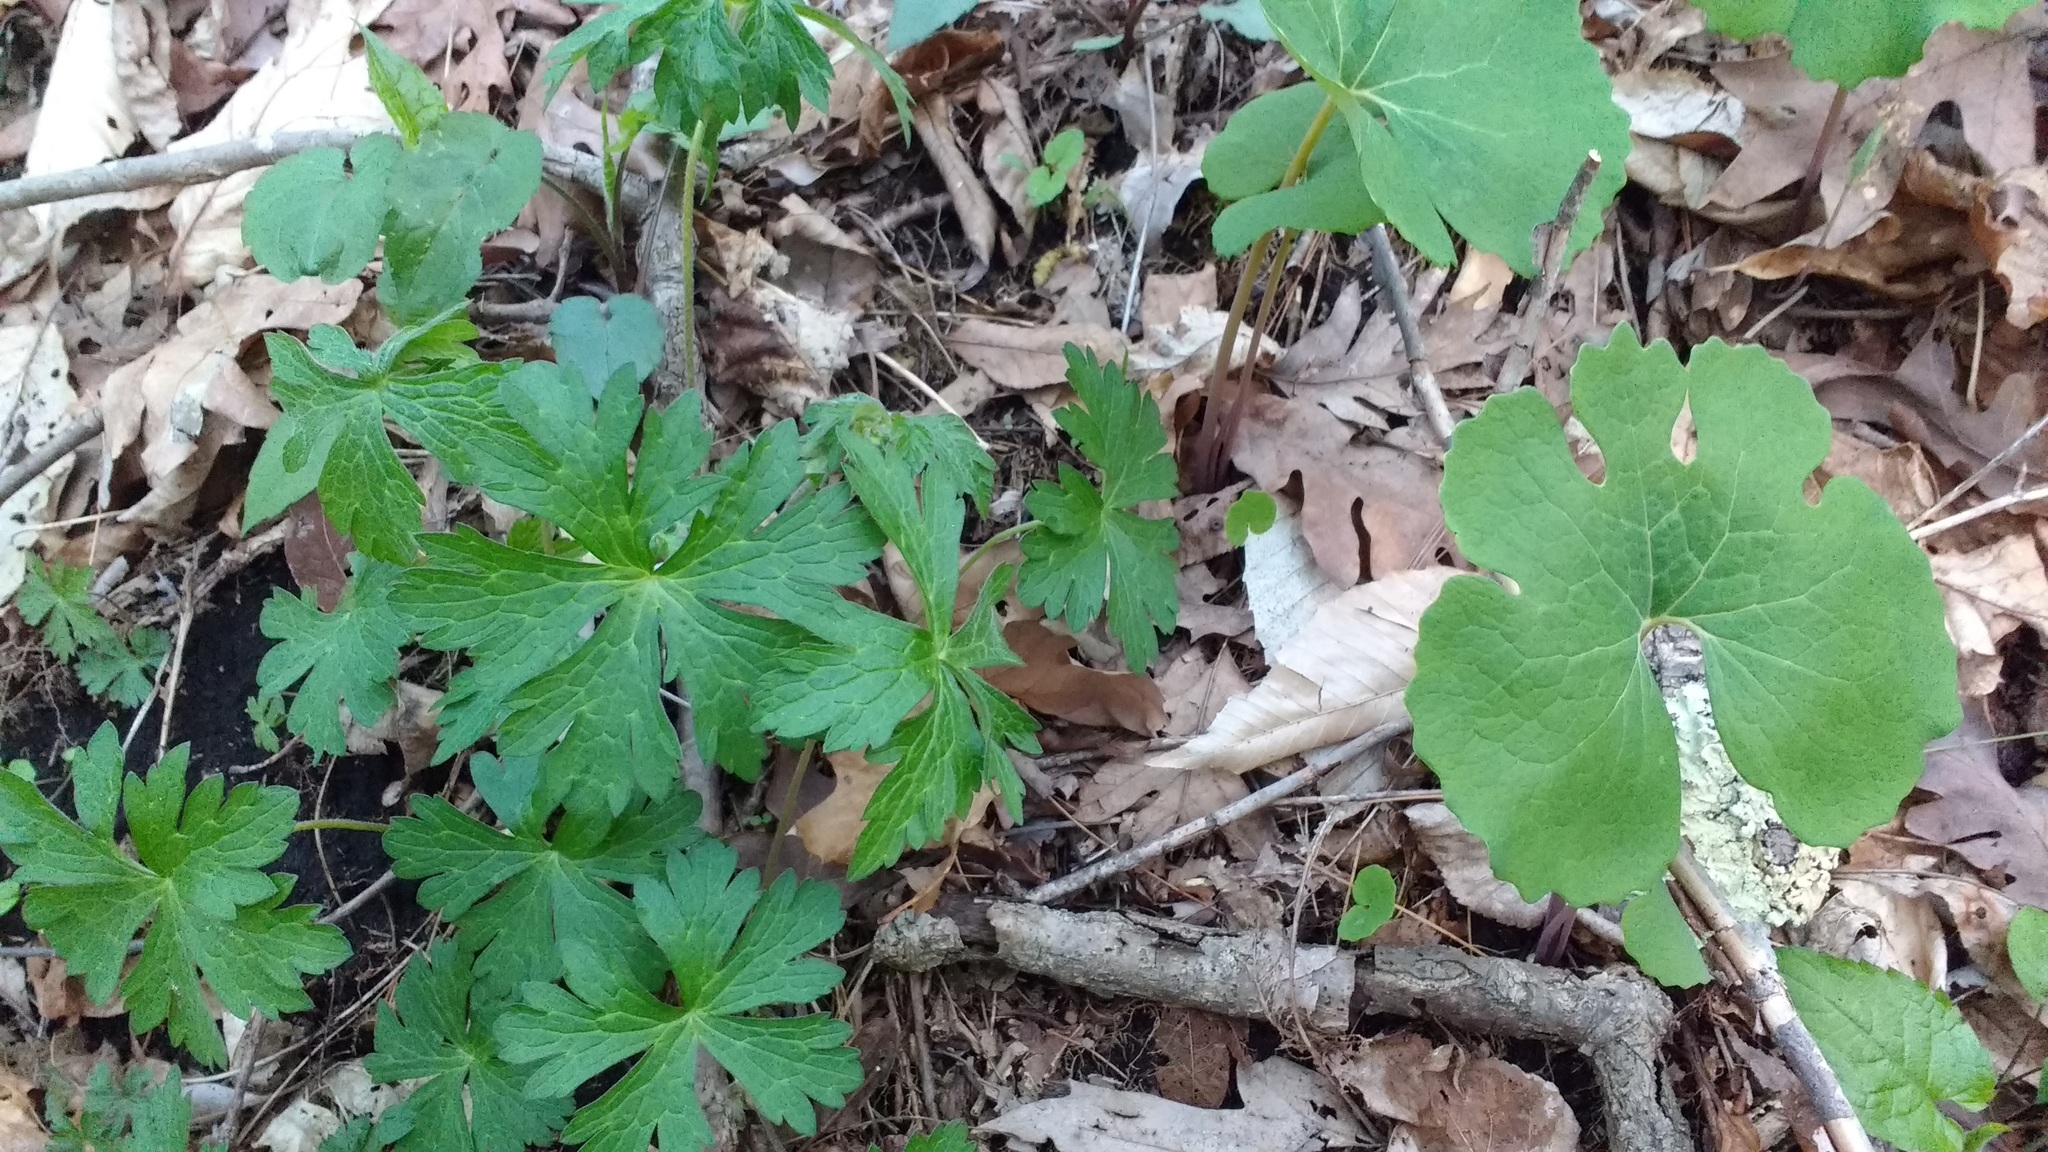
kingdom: Plantae
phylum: Tracheophyta
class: Magnoliopsida
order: Ranunculales
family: Papaveraceae
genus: Sanguinaria
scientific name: Sanguinaria canadensis
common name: Bloodroot
